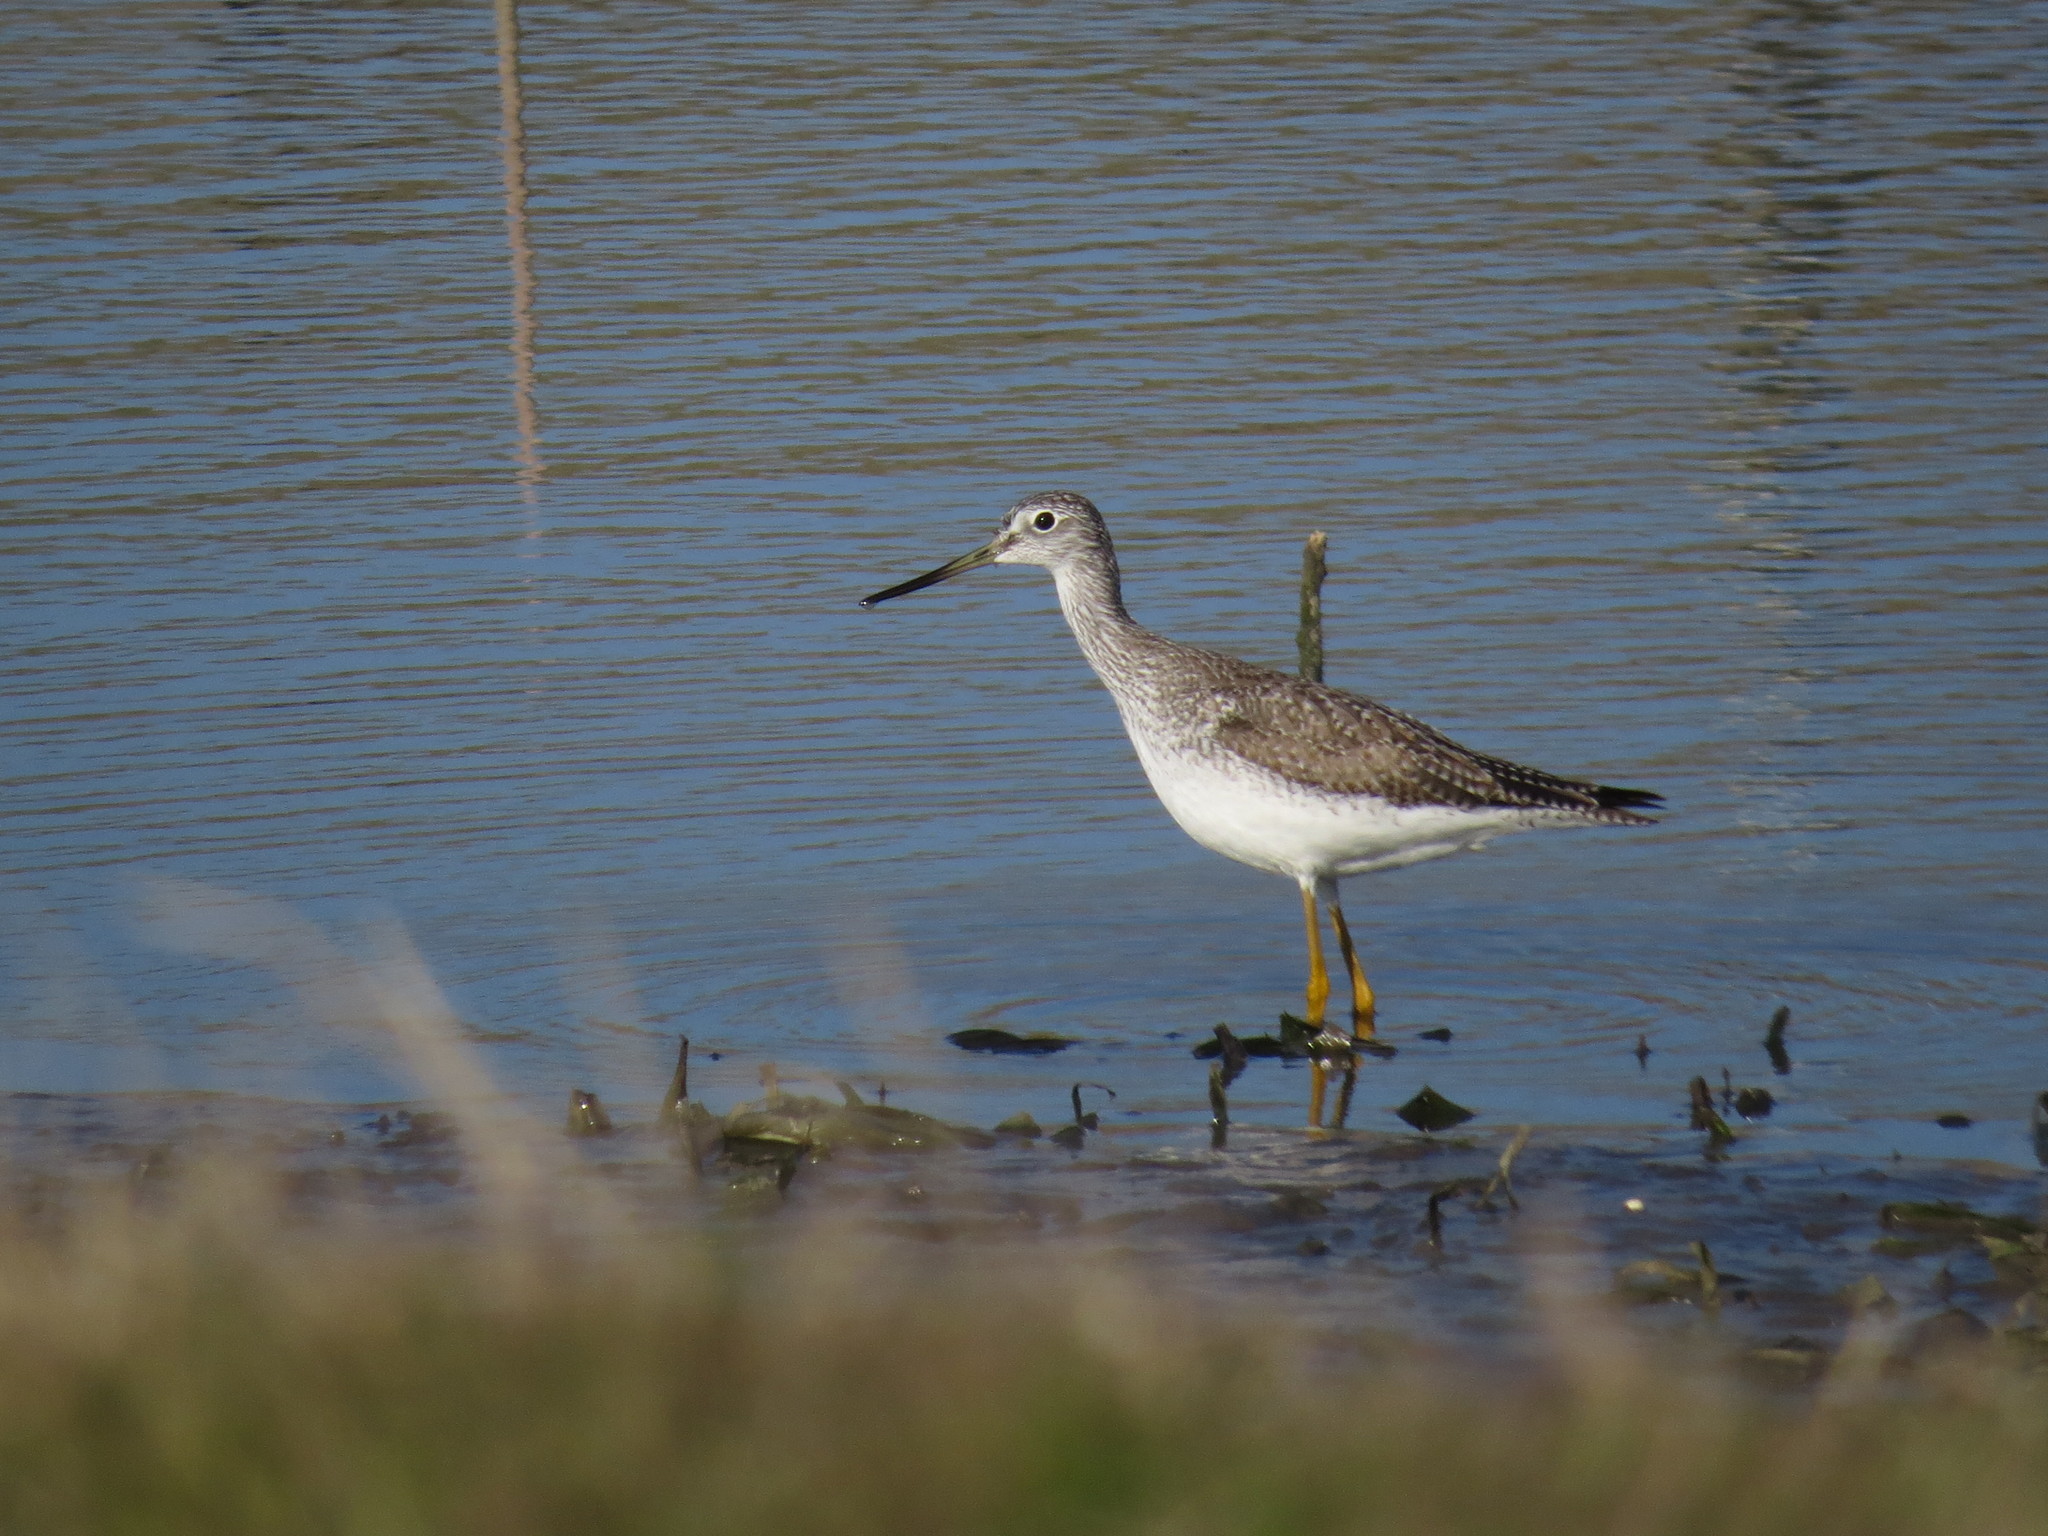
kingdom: Animalia
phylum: Chordata
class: Aves
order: Charadriiformes
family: Scolopacidae
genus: Tringa
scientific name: Tringa melanoleuca
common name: Greater yellowlegs
